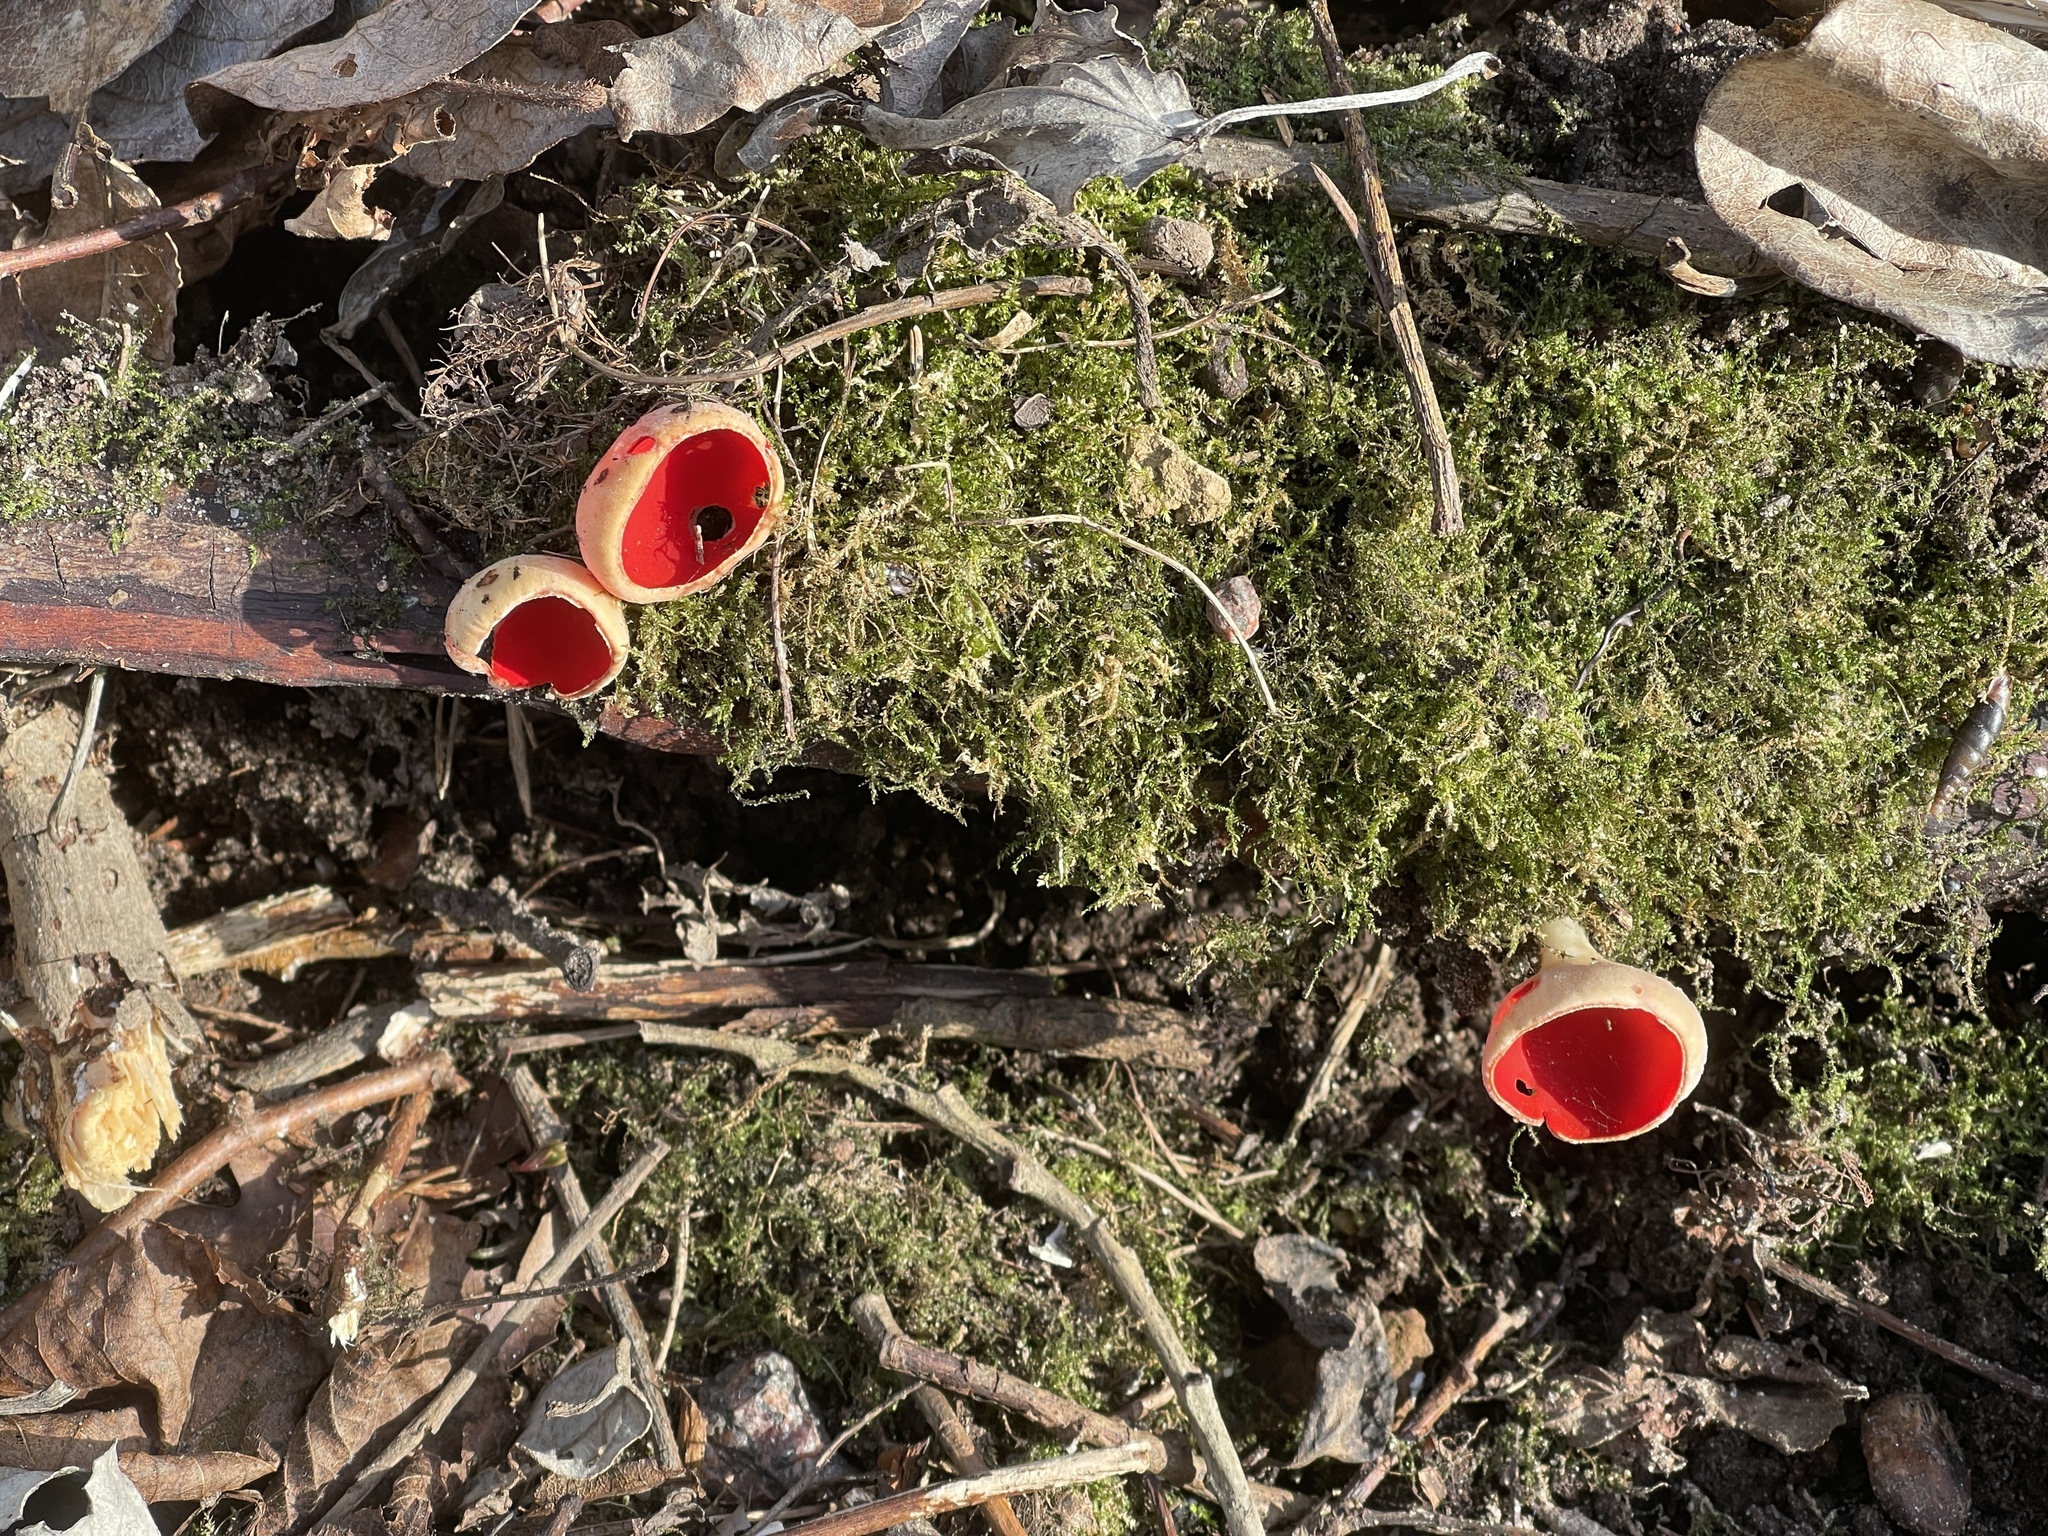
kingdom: Fungi
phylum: Ascomycota
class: Pezizomycetes
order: Pezizales
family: Sarcoscyphaceae
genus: Sarcoscypha
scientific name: Sarcoscypha
